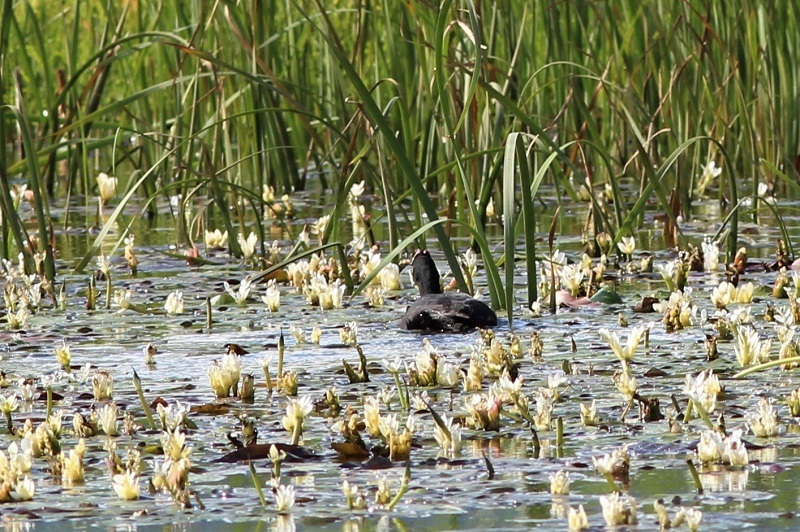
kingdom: Animalia
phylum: Chordata
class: Aves
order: Gruiformes
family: Rallidae
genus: Fulica
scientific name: Fulica cristata
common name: Red-knobbed coot
